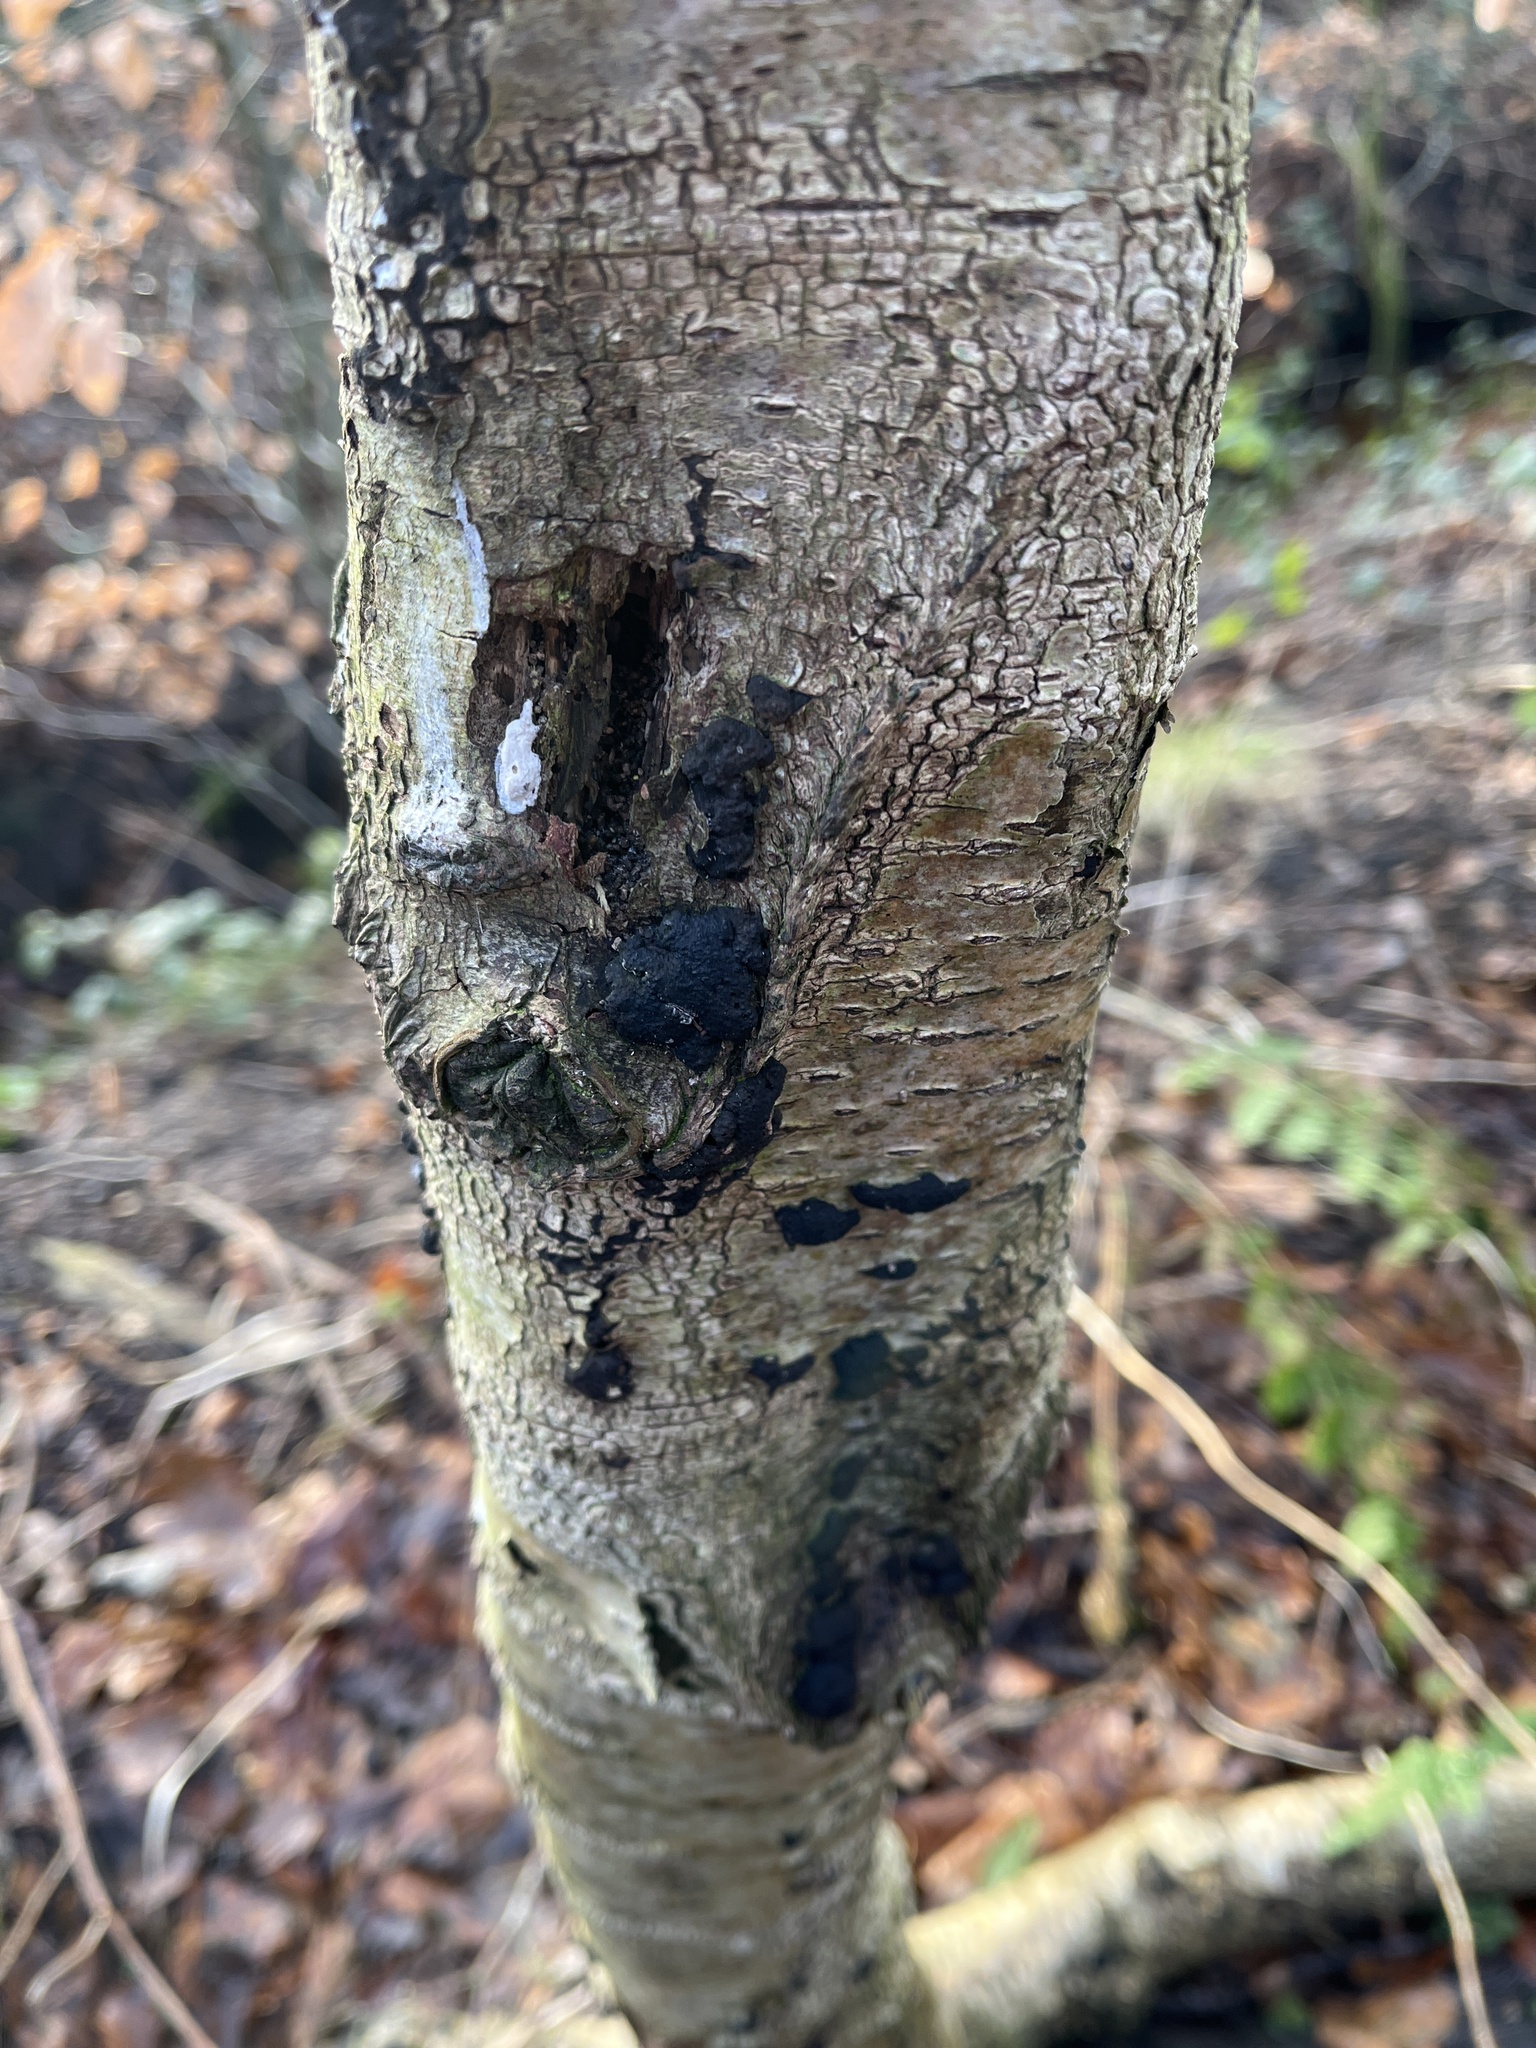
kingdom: Fungi
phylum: Ascomycota
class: Sordariomycetes
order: Xylariales
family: Hypoxylaceae
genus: Jackrogersella
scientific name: Jackrogersella multiformis
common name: Birch woodwart
